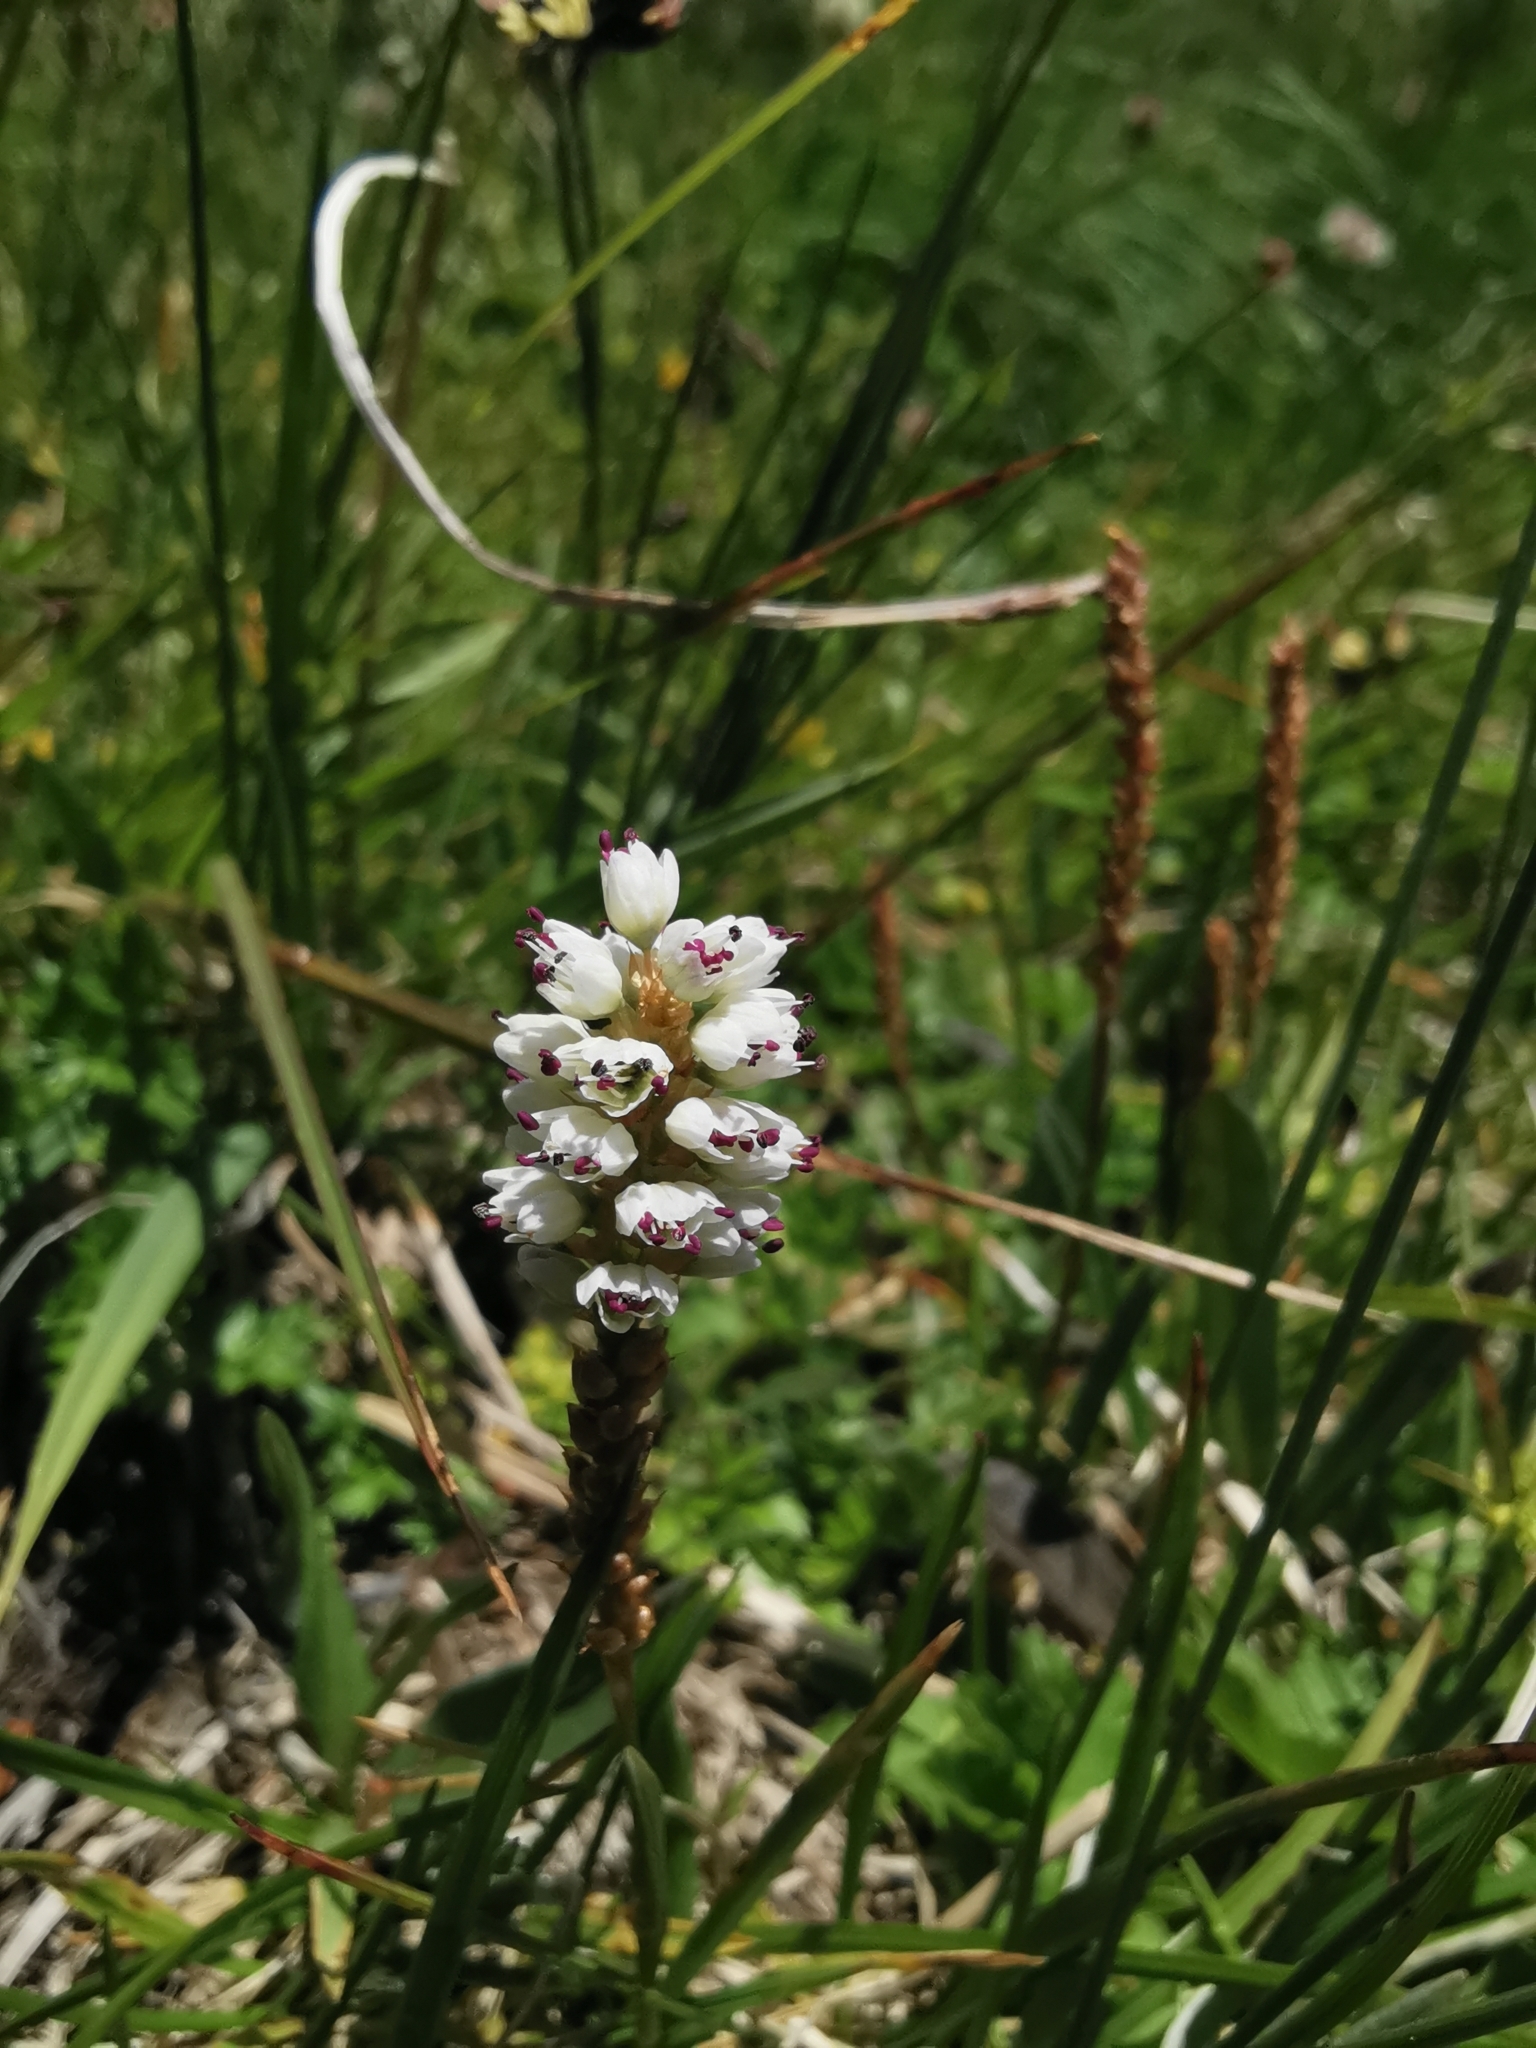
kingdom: Plantae
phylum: Tracheophyta
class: Magnoliopsida
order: Caryophyllales
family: Polygonaceae
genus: Bistorta
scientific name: Bistorta vivipara
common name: Alpine bistort
